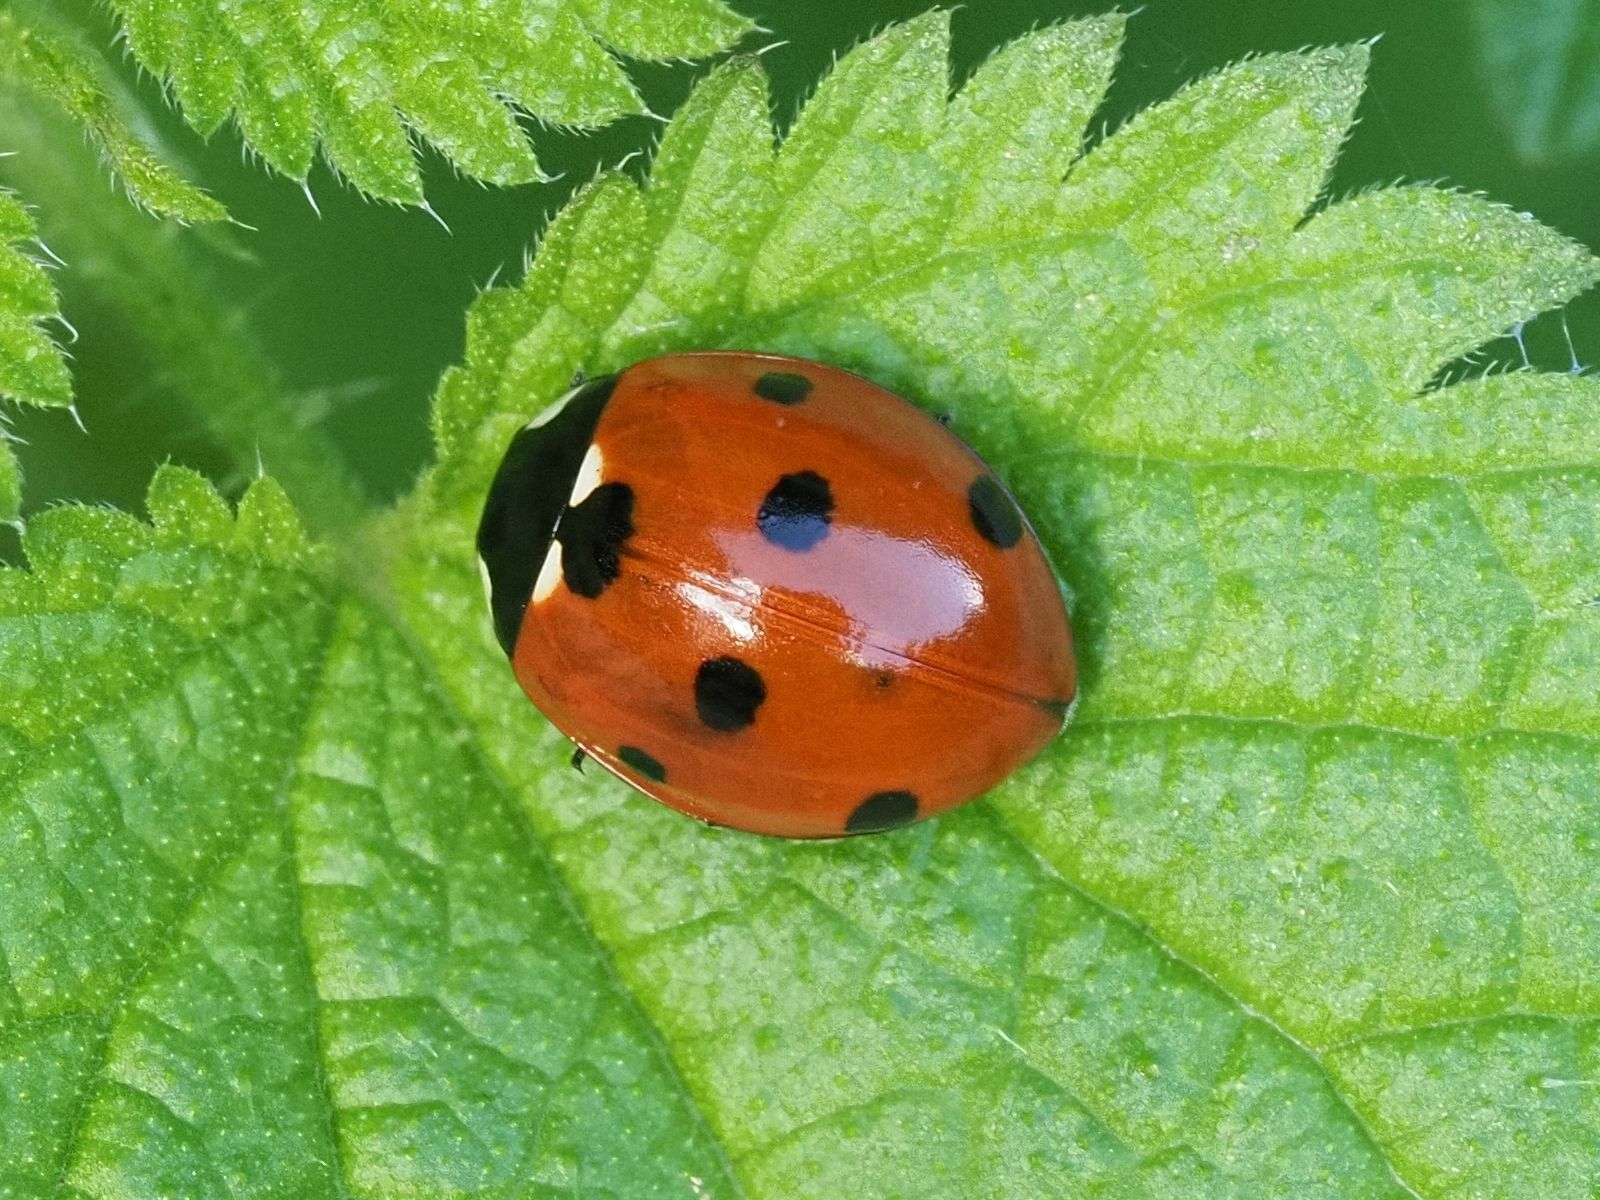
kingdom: Animalia
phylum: Arthropoda
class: Insecta
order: Coleoptera
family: Coccinellidae
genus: Coccinella
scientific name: Coccinella septempunctata
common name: Sevenspotted lady beetle
